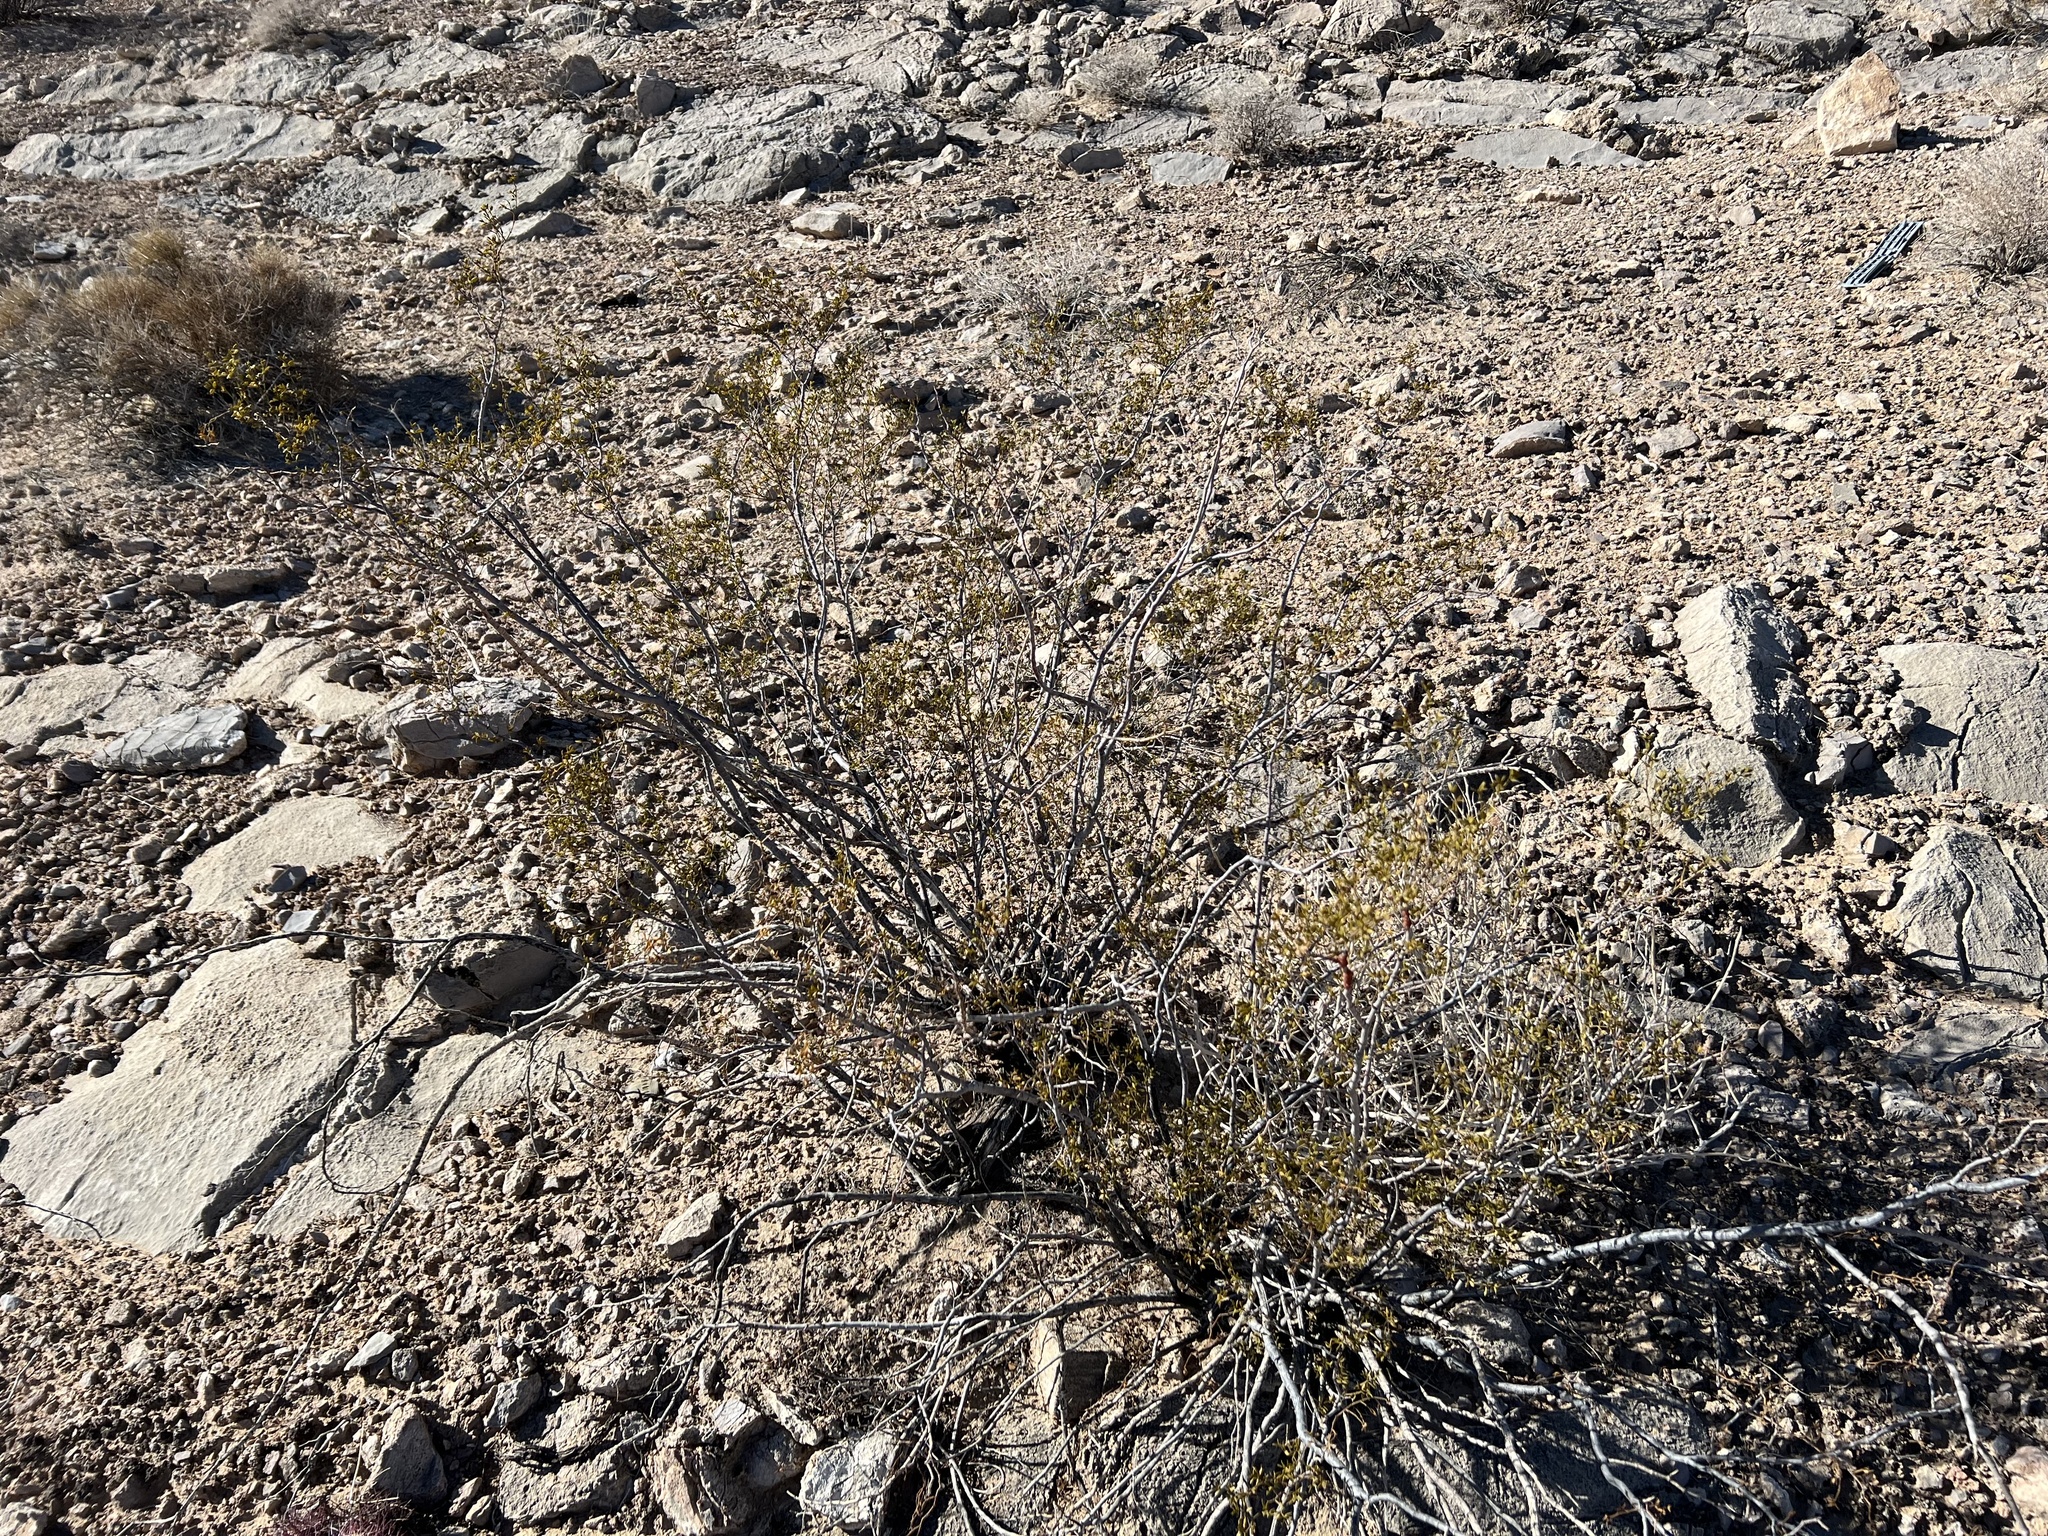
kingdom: Plantae
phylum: Tracheophyta
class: Magnoliopsida
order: Zygophyllales
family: Zygophyllaceae
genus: Larrea
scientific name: Larrea tridentata
